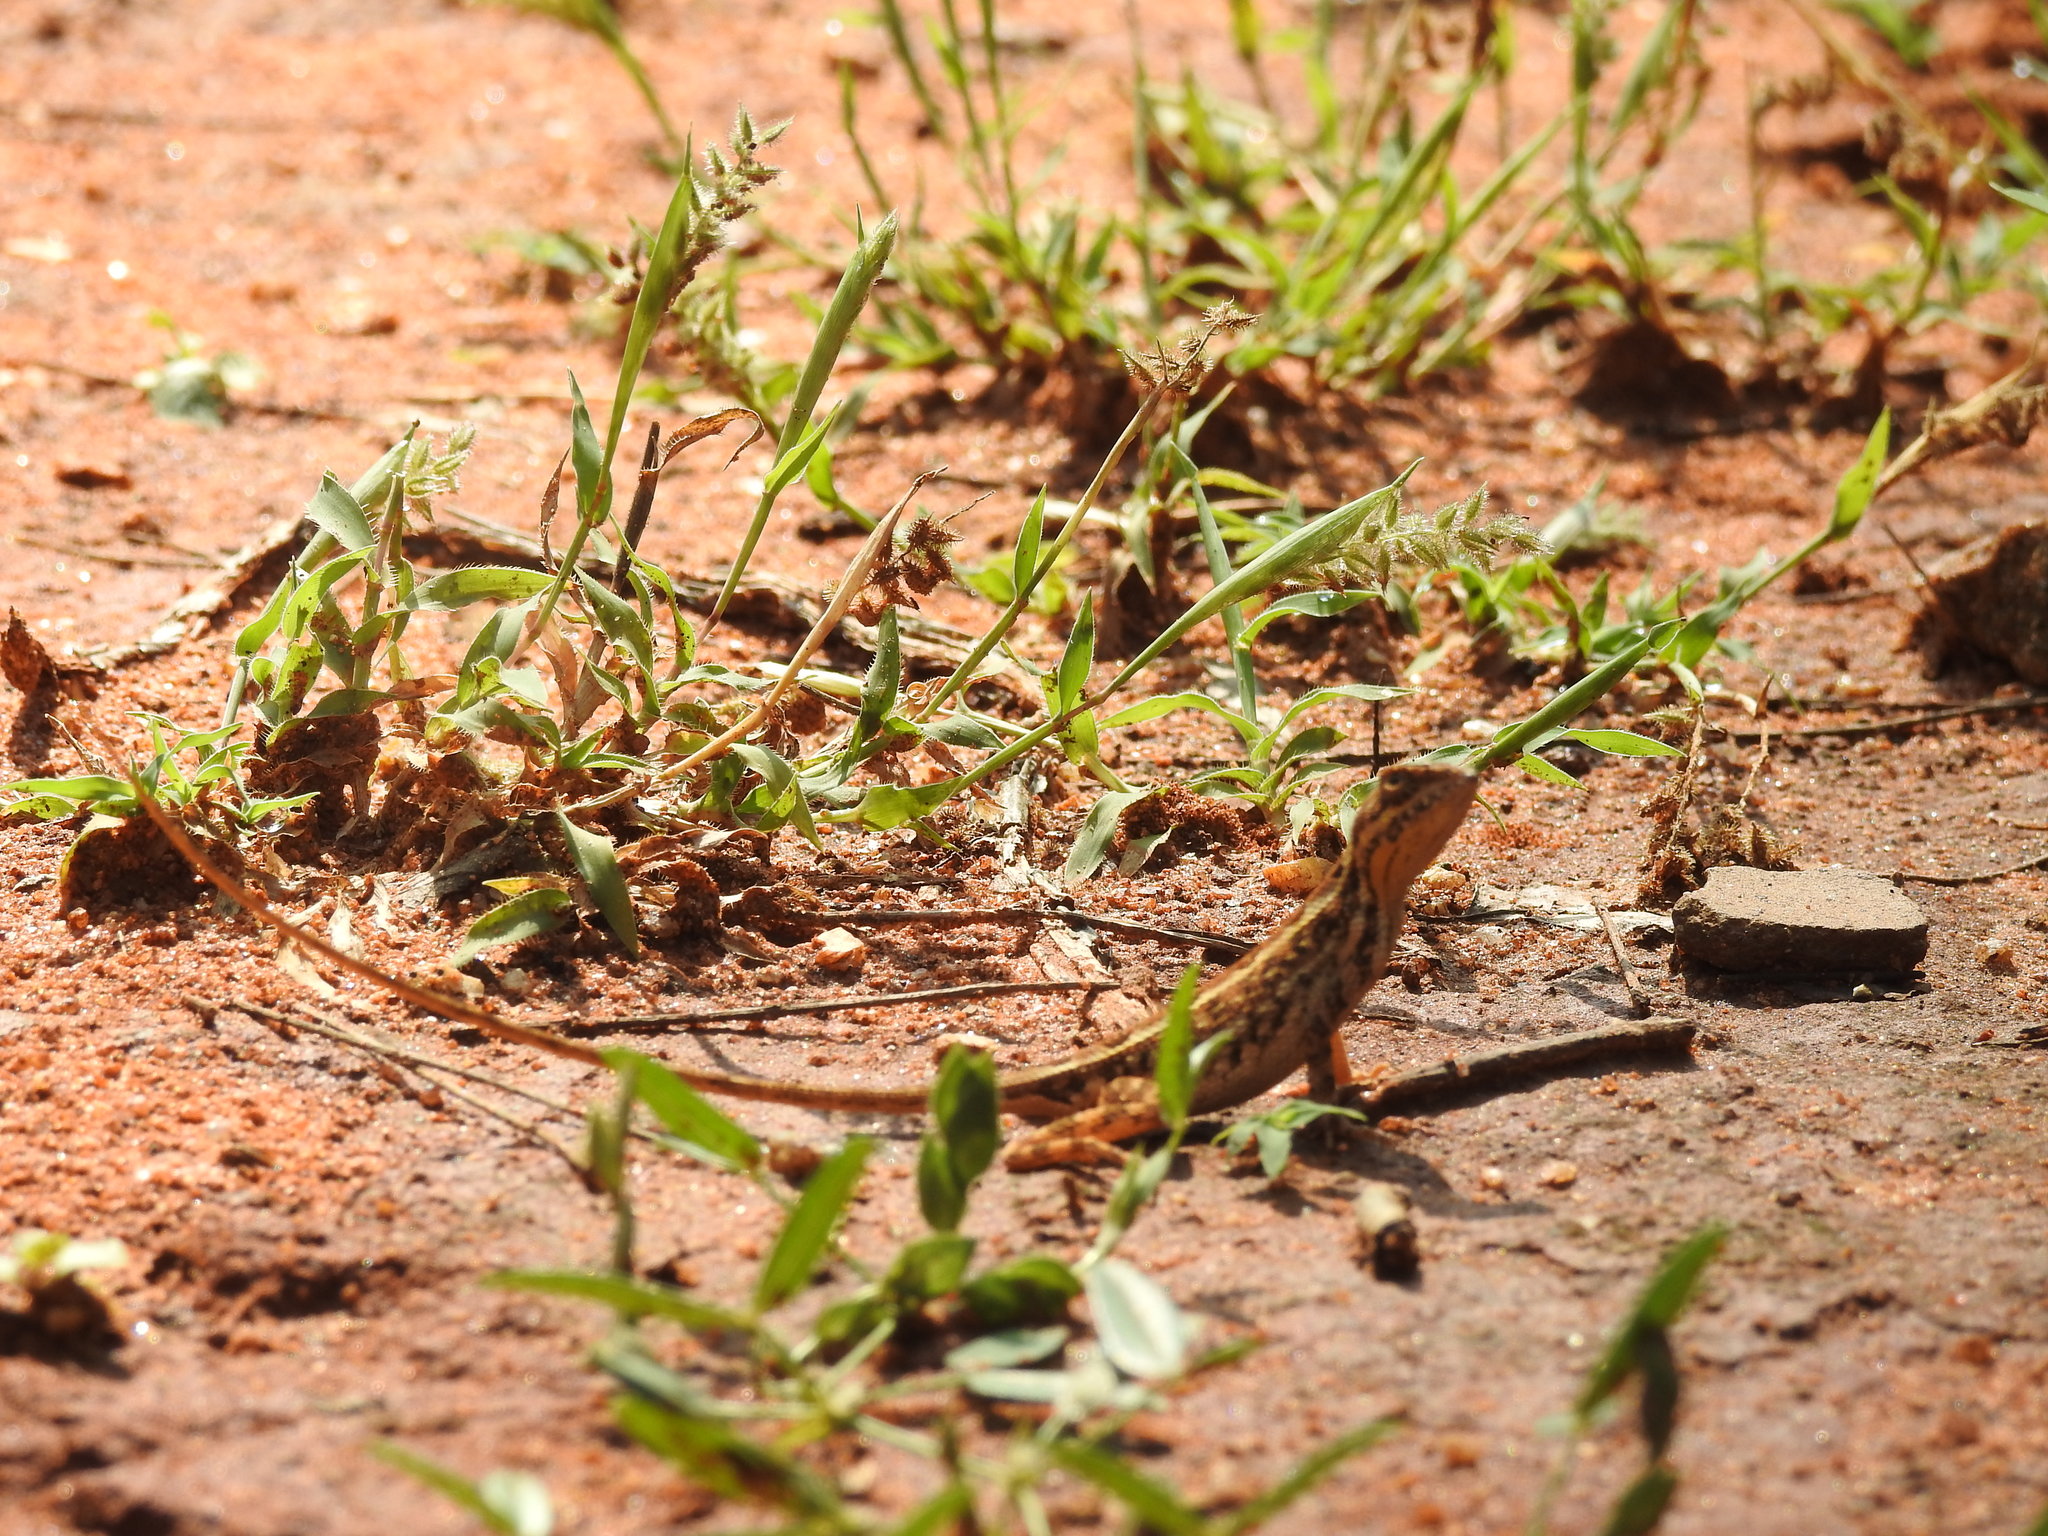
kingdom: Animalia
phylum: Chordata
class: Squamata
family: Agamidae
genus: Sitana
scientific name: Sitana marudhamneydhal
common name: Attenborough’s fan-throated lizard
